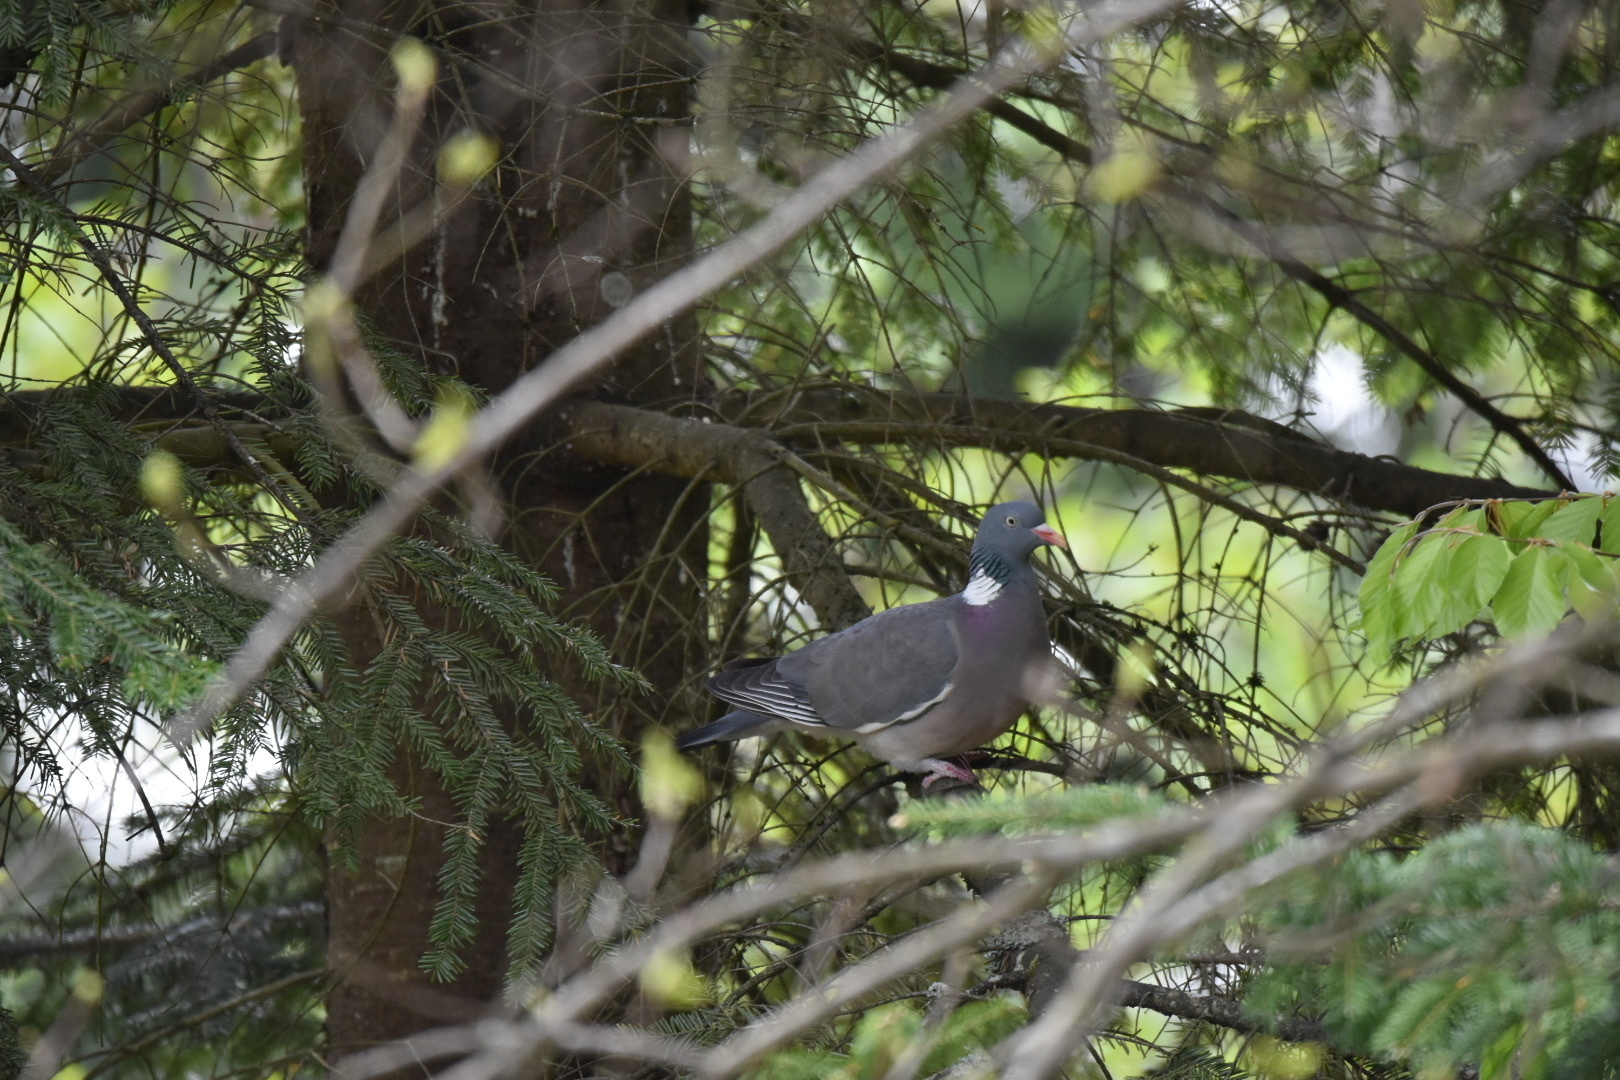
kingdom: Animalia
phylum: Chordata
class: Aves
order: Columbiformes
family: Columbidae
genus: Columba
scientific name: Columba palumbus
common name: Common wood pigeon
